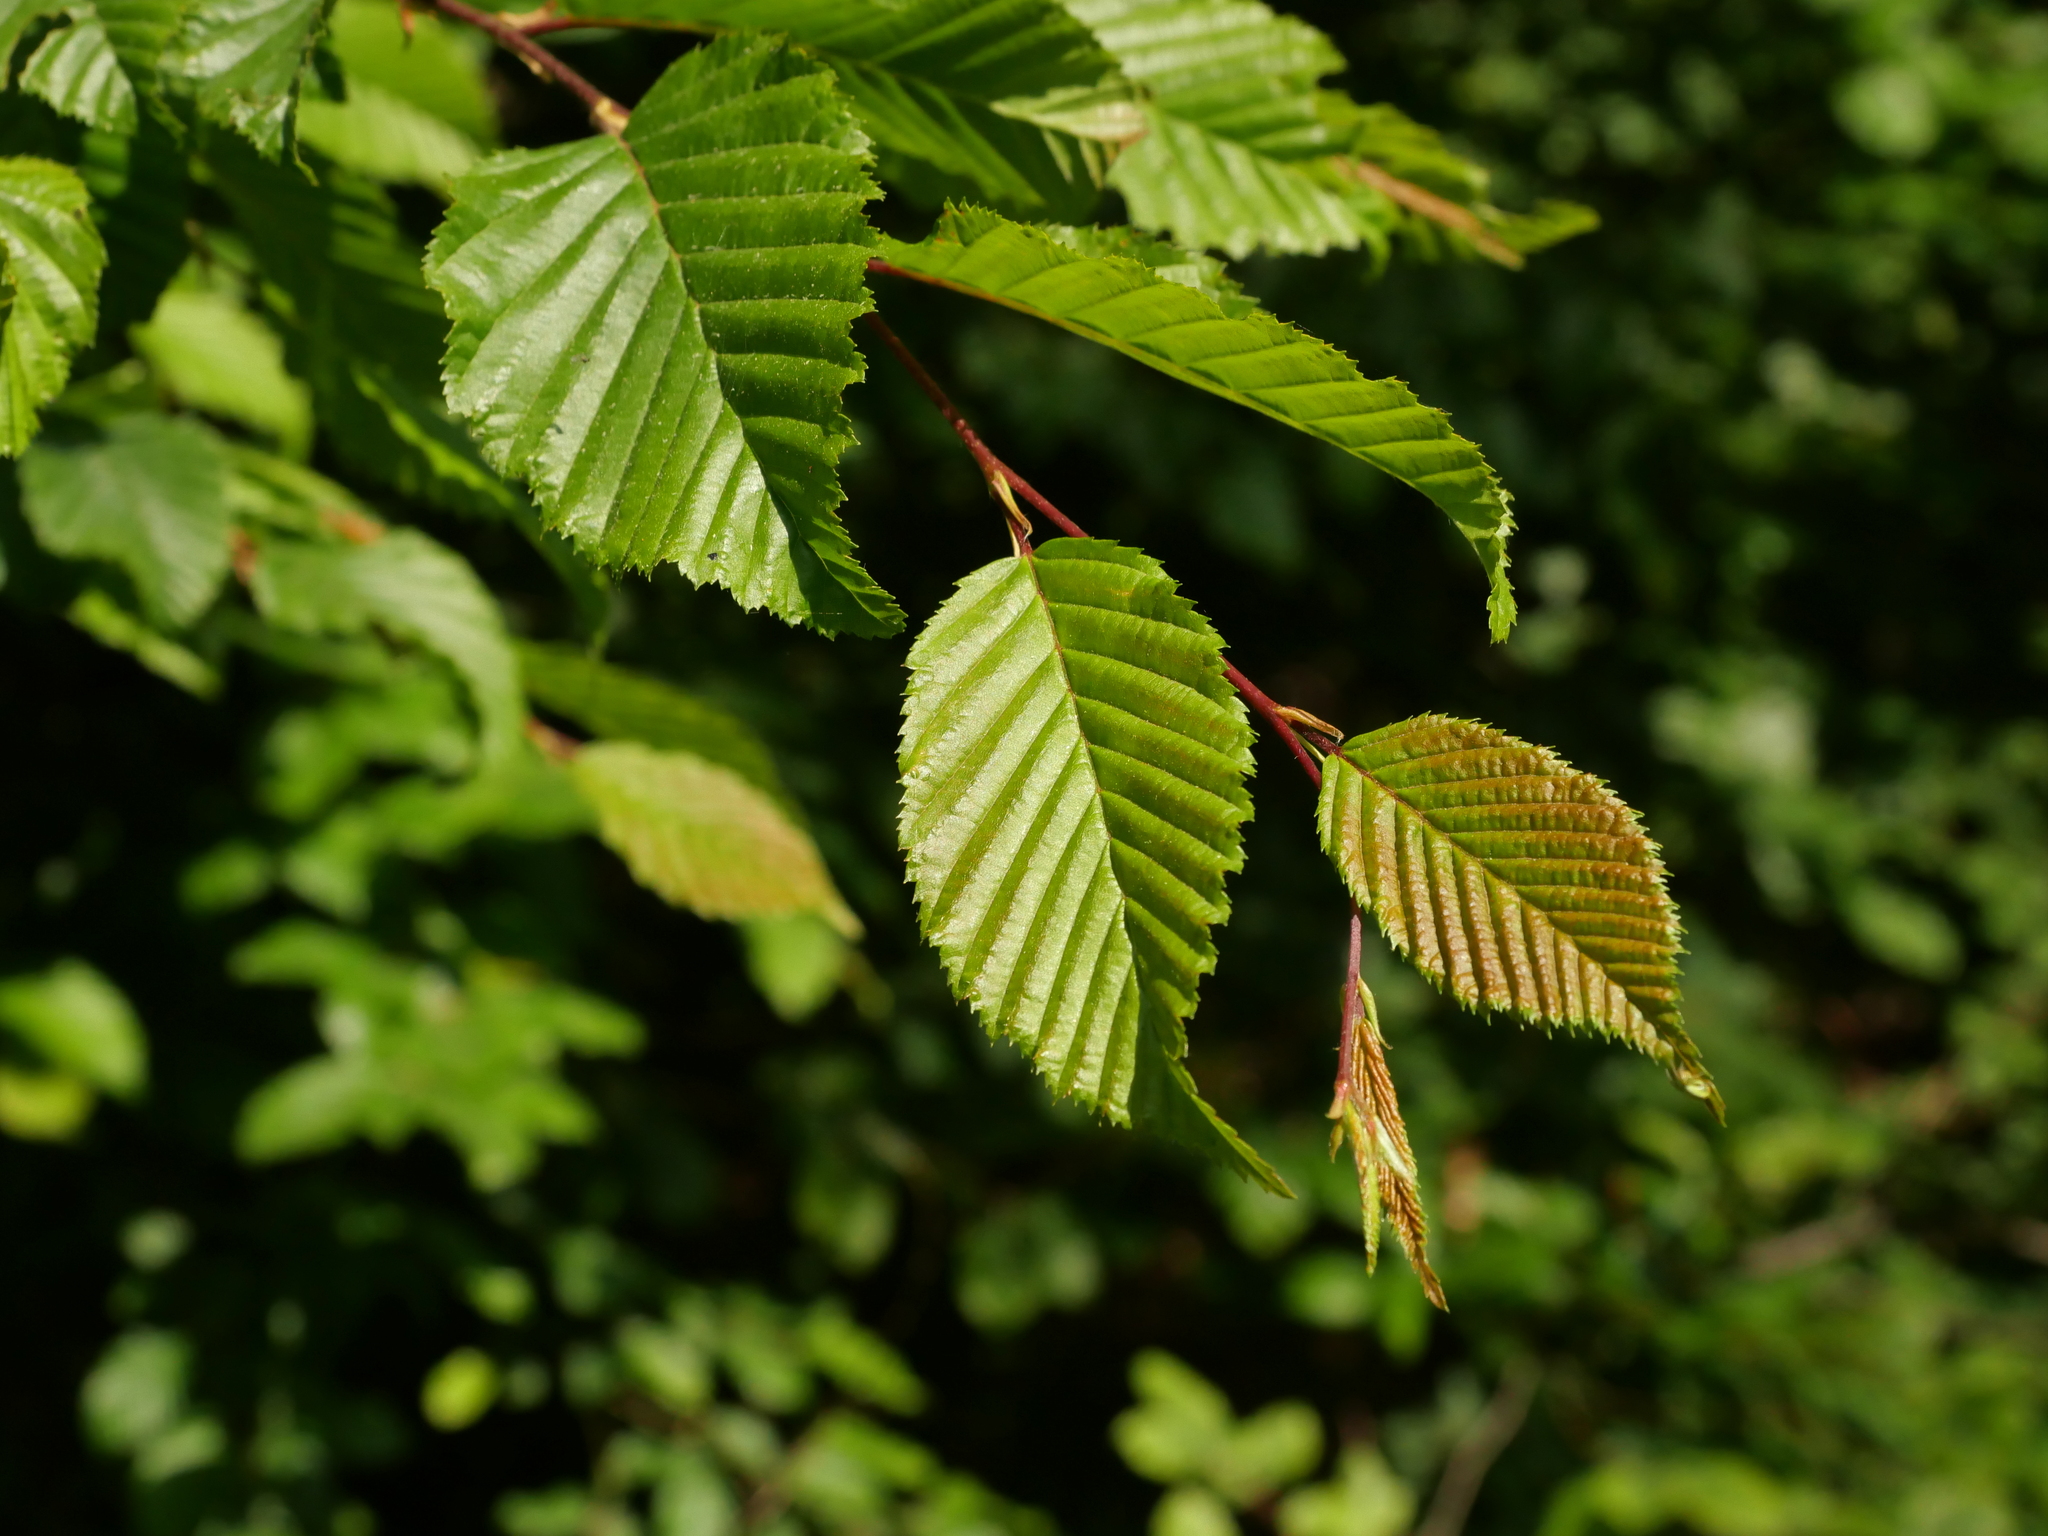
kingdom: Plantae
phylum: Tracheophyta
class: Magnoliopsida
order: Fagales
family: Betulaceae
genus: Carpinus
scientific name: Carpinus betulus
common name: Hornbeam
